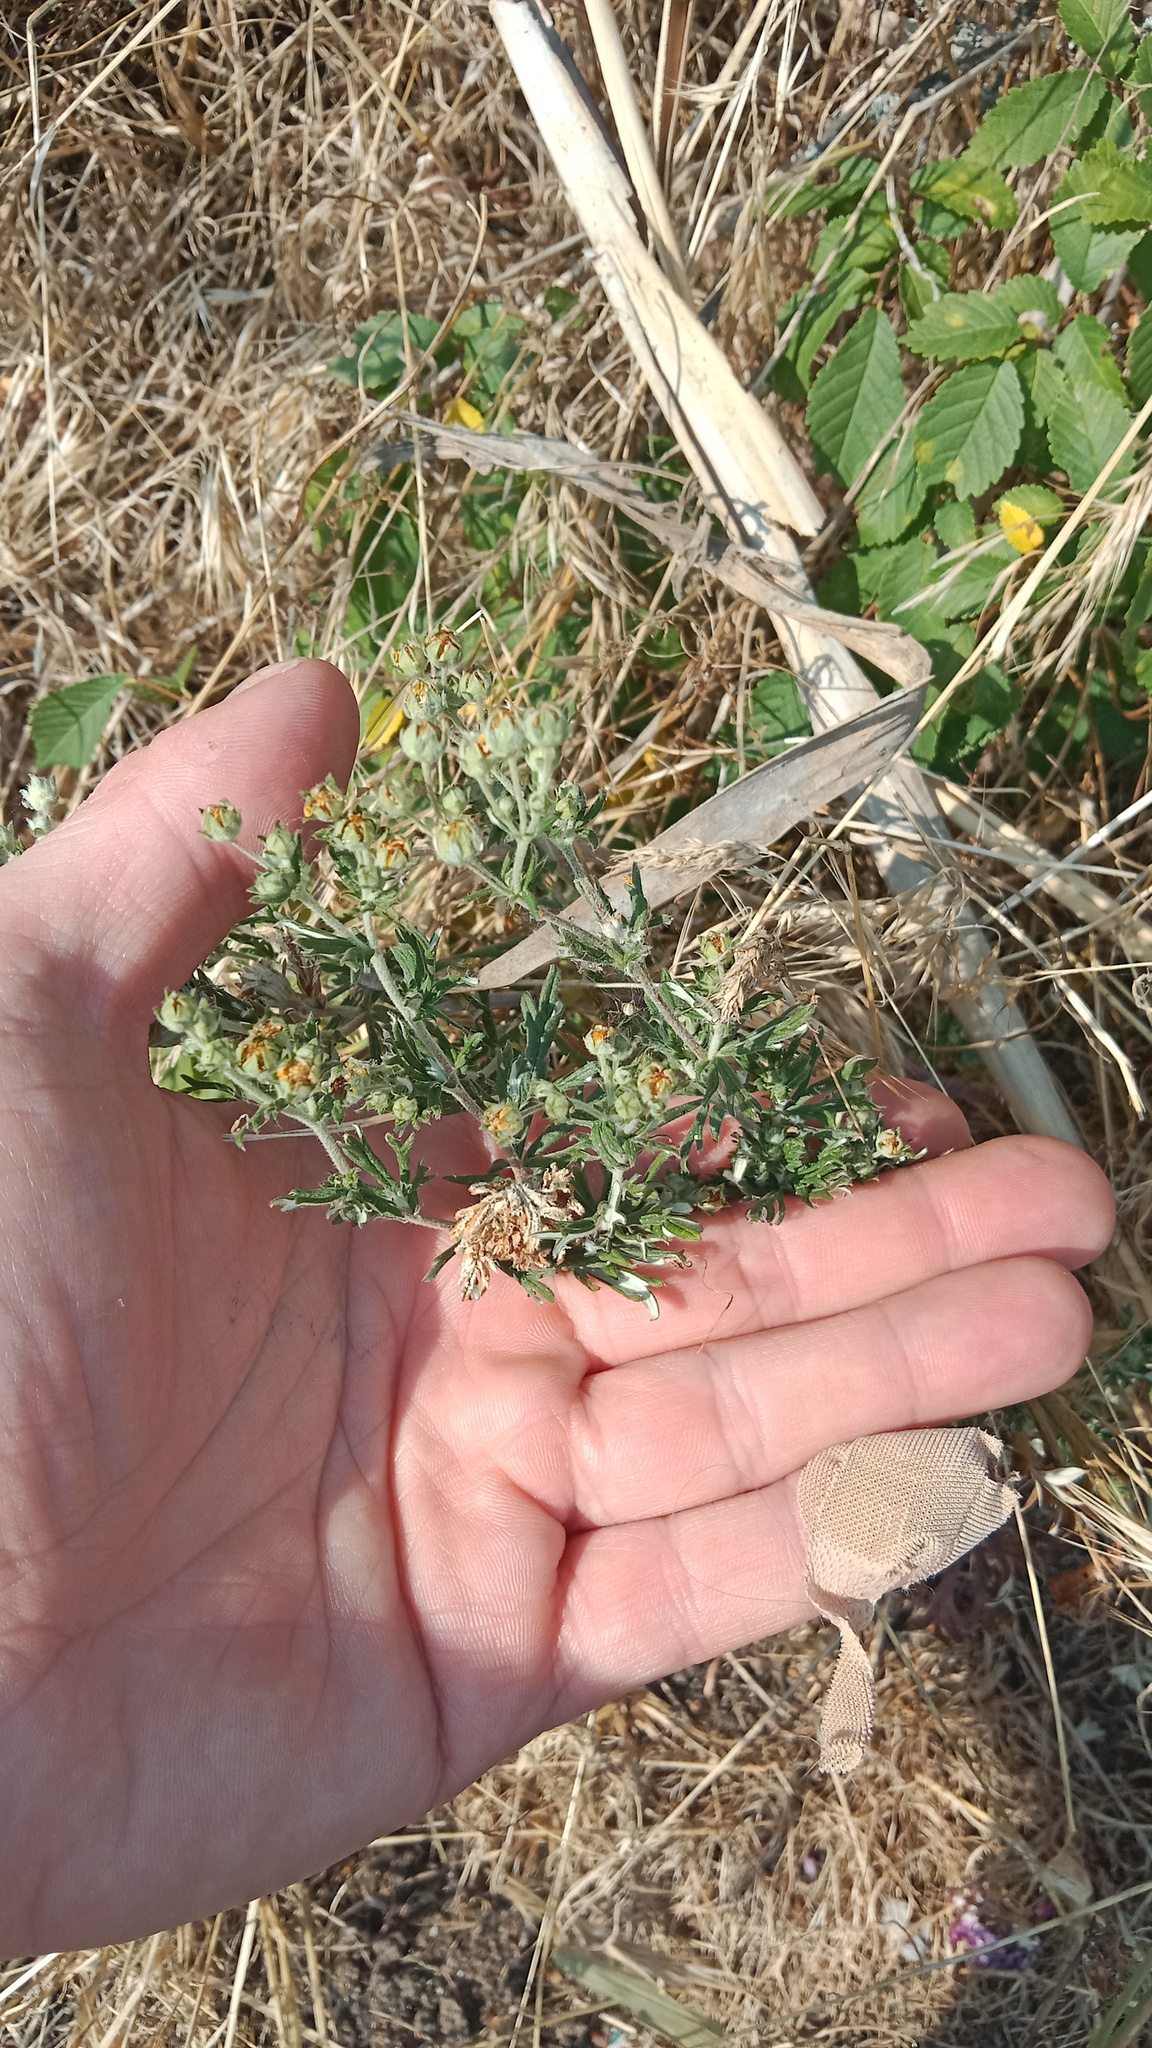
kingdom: Plantae
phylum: Tracheophyta
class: Magnoliopsida
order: Rosales
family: Rosaceae
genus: Potentilla
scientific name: Potentilla argentea
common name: Hoary cinquefoil
